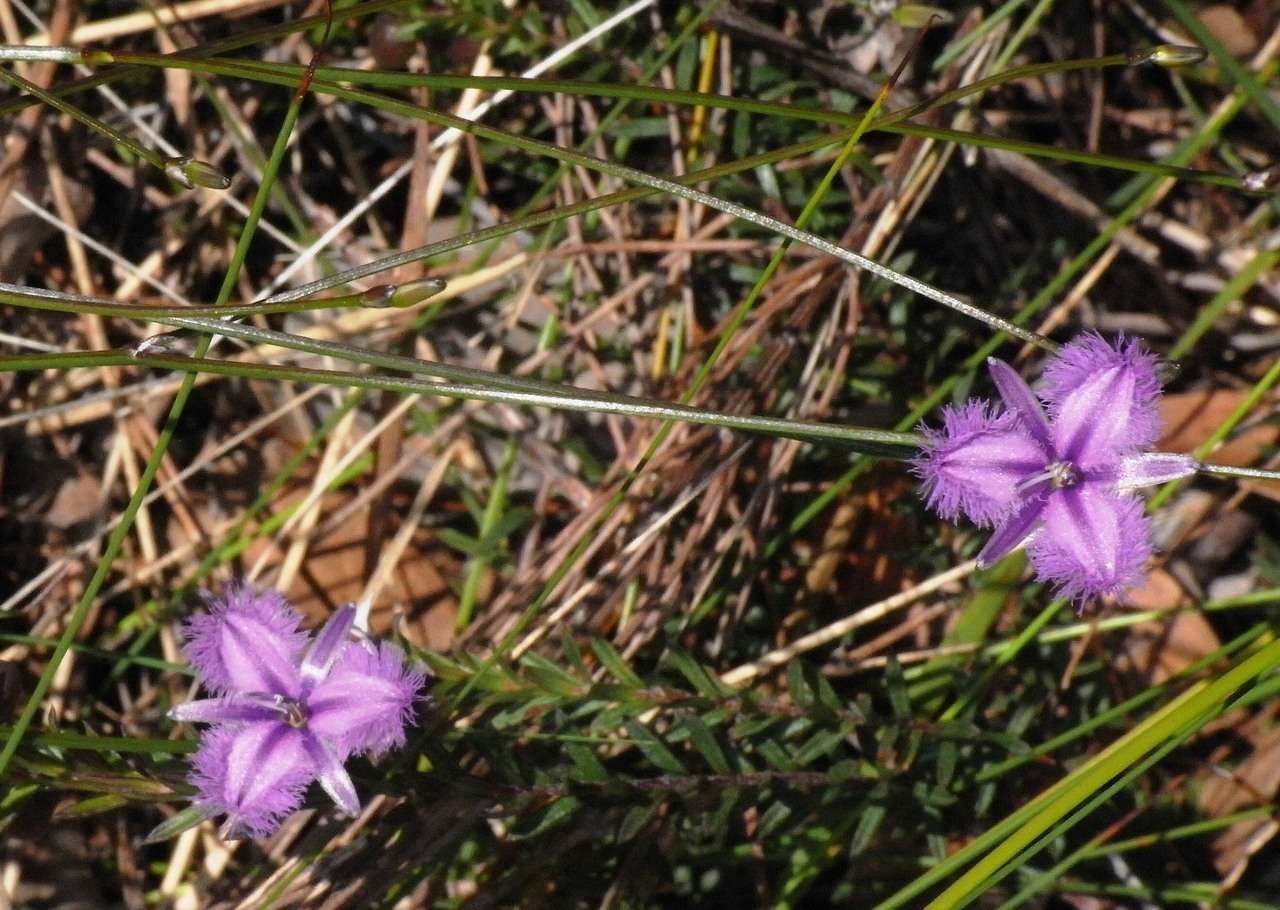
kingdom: Plantae
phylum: Tracheophyta
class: Liliopsida
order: Asparagales
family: Asparagaceae
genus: Thysanotus
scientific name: Thysanotus juncifolius
